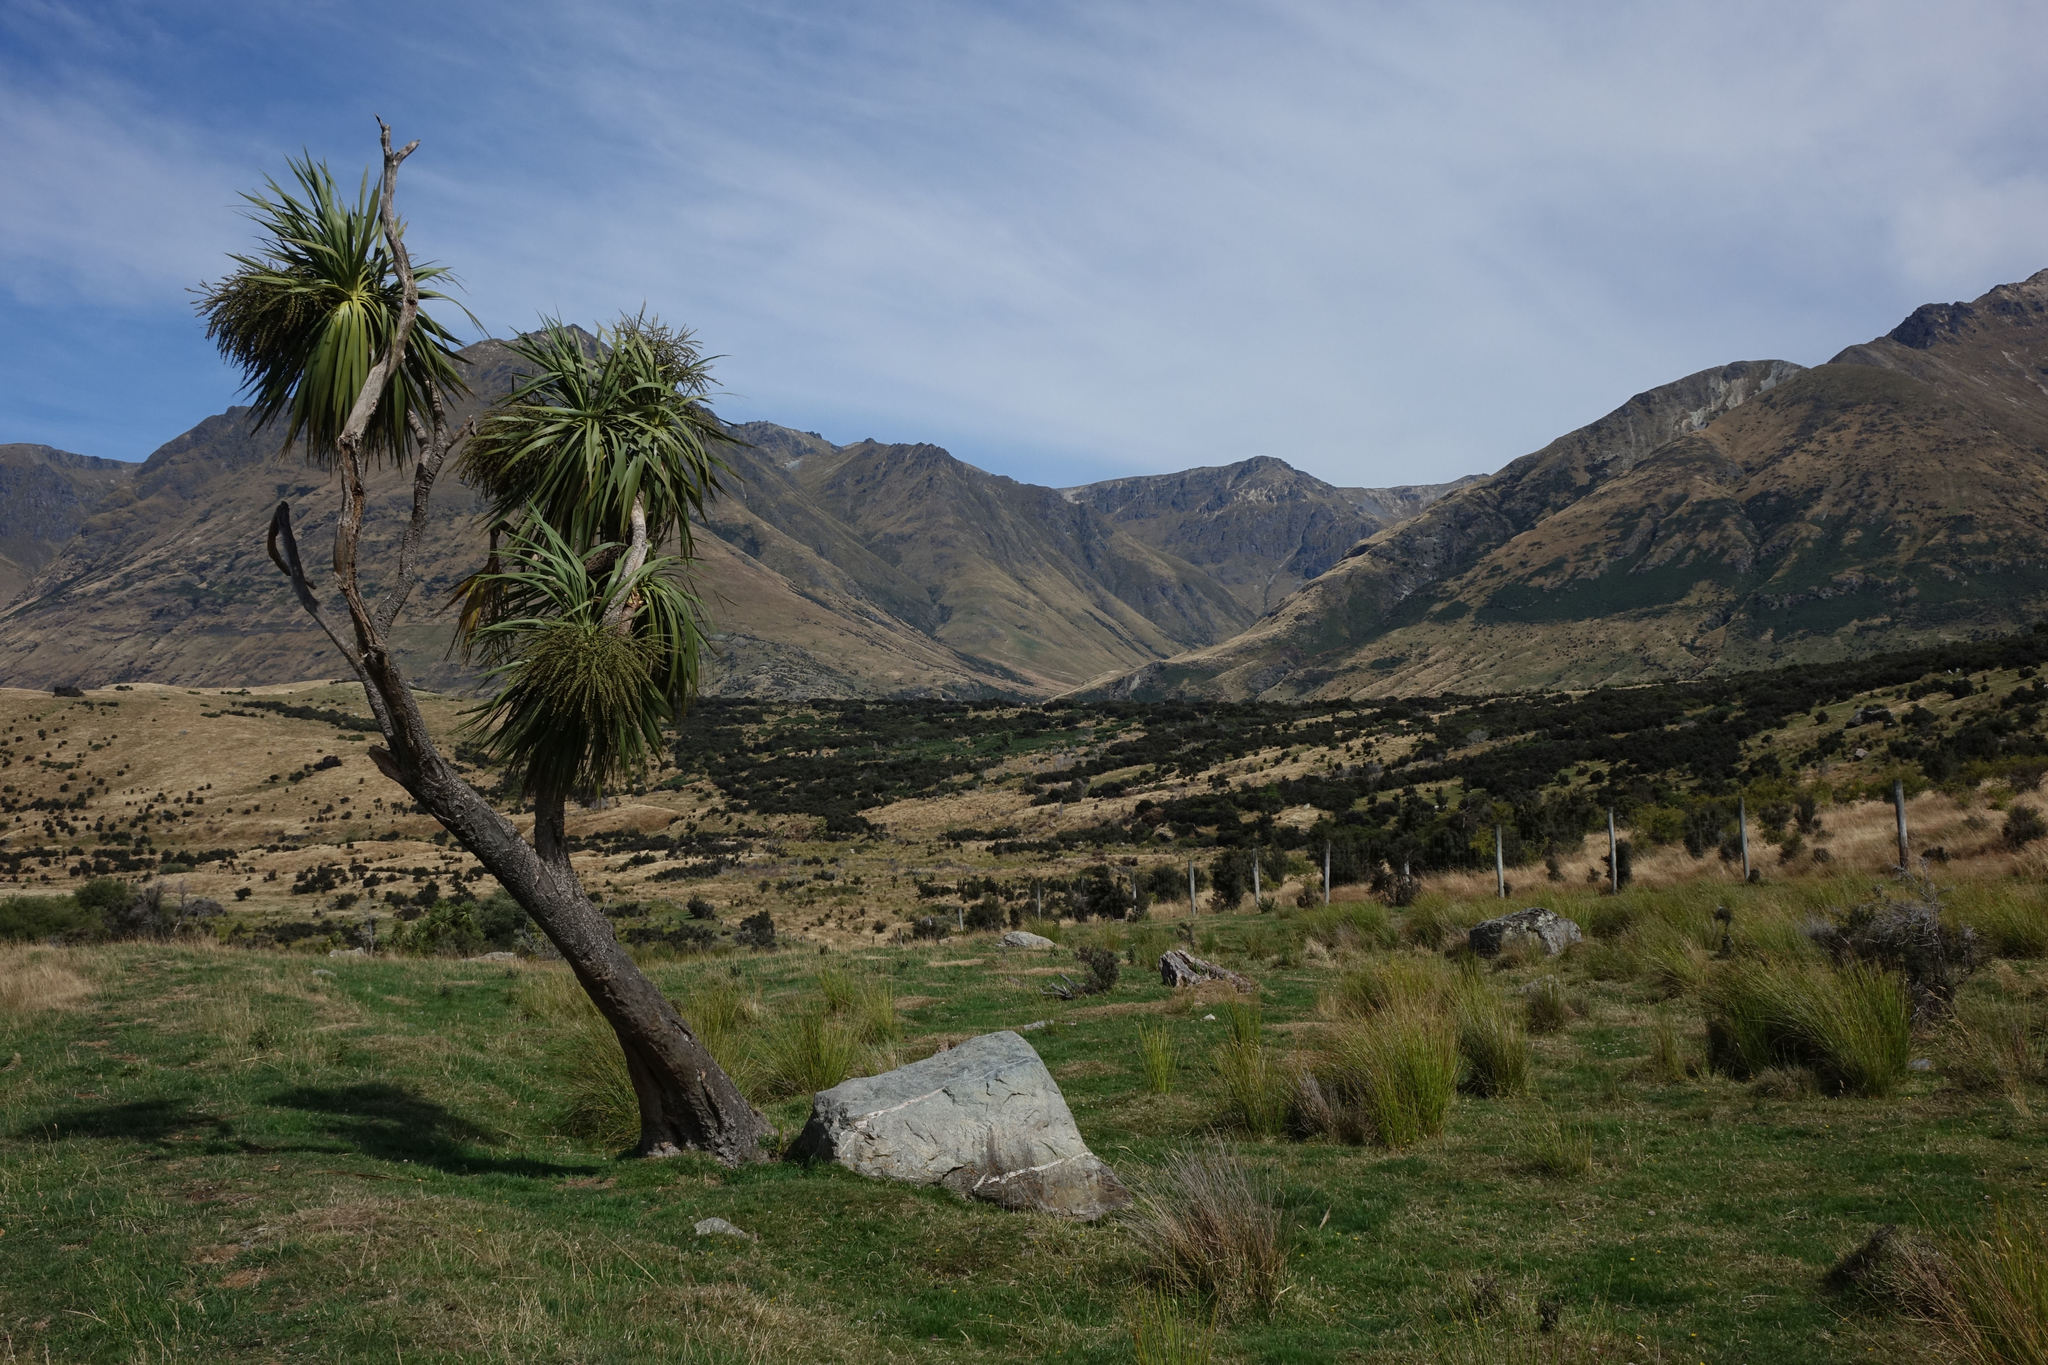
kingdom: Plantae
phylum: Tracheophyta
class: Liliopsida
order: Asparagales
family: Asparagaceae
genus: Cordyline
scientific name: Cordyline australis
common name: Cabbage-palm
